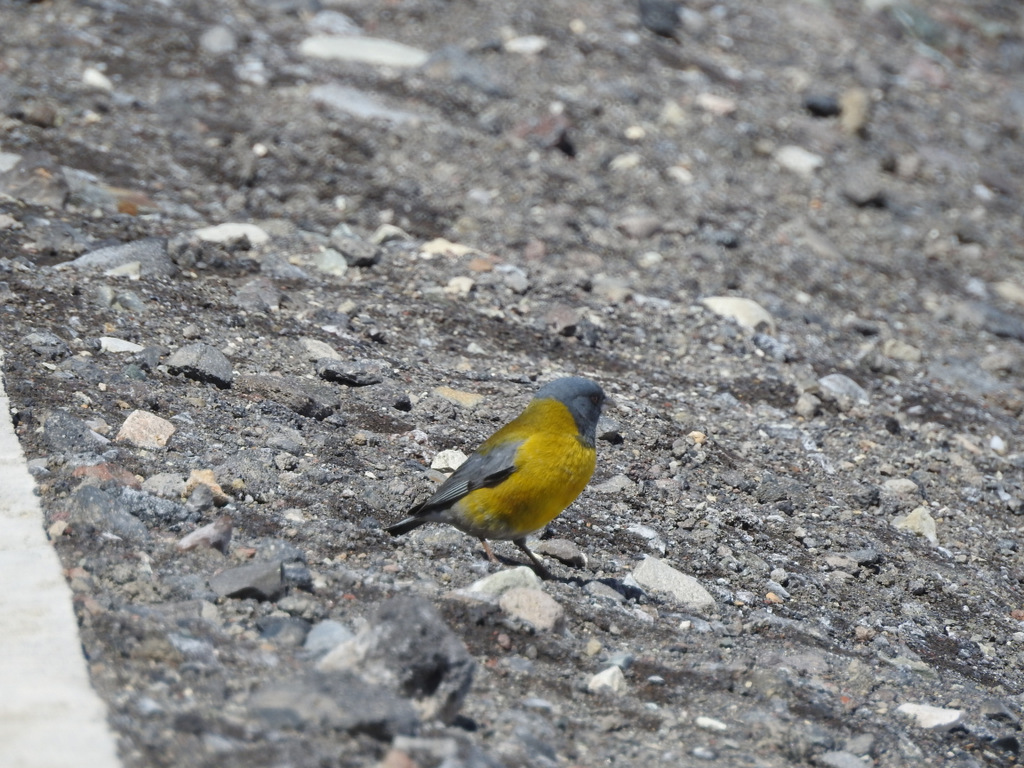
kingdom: Animalia
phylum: Chordata
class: Aves
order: Passeriformes
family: Thraupidae
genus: Phrygilus
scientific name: Phrygilus gayi
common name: Grey-hooded sierra finch
